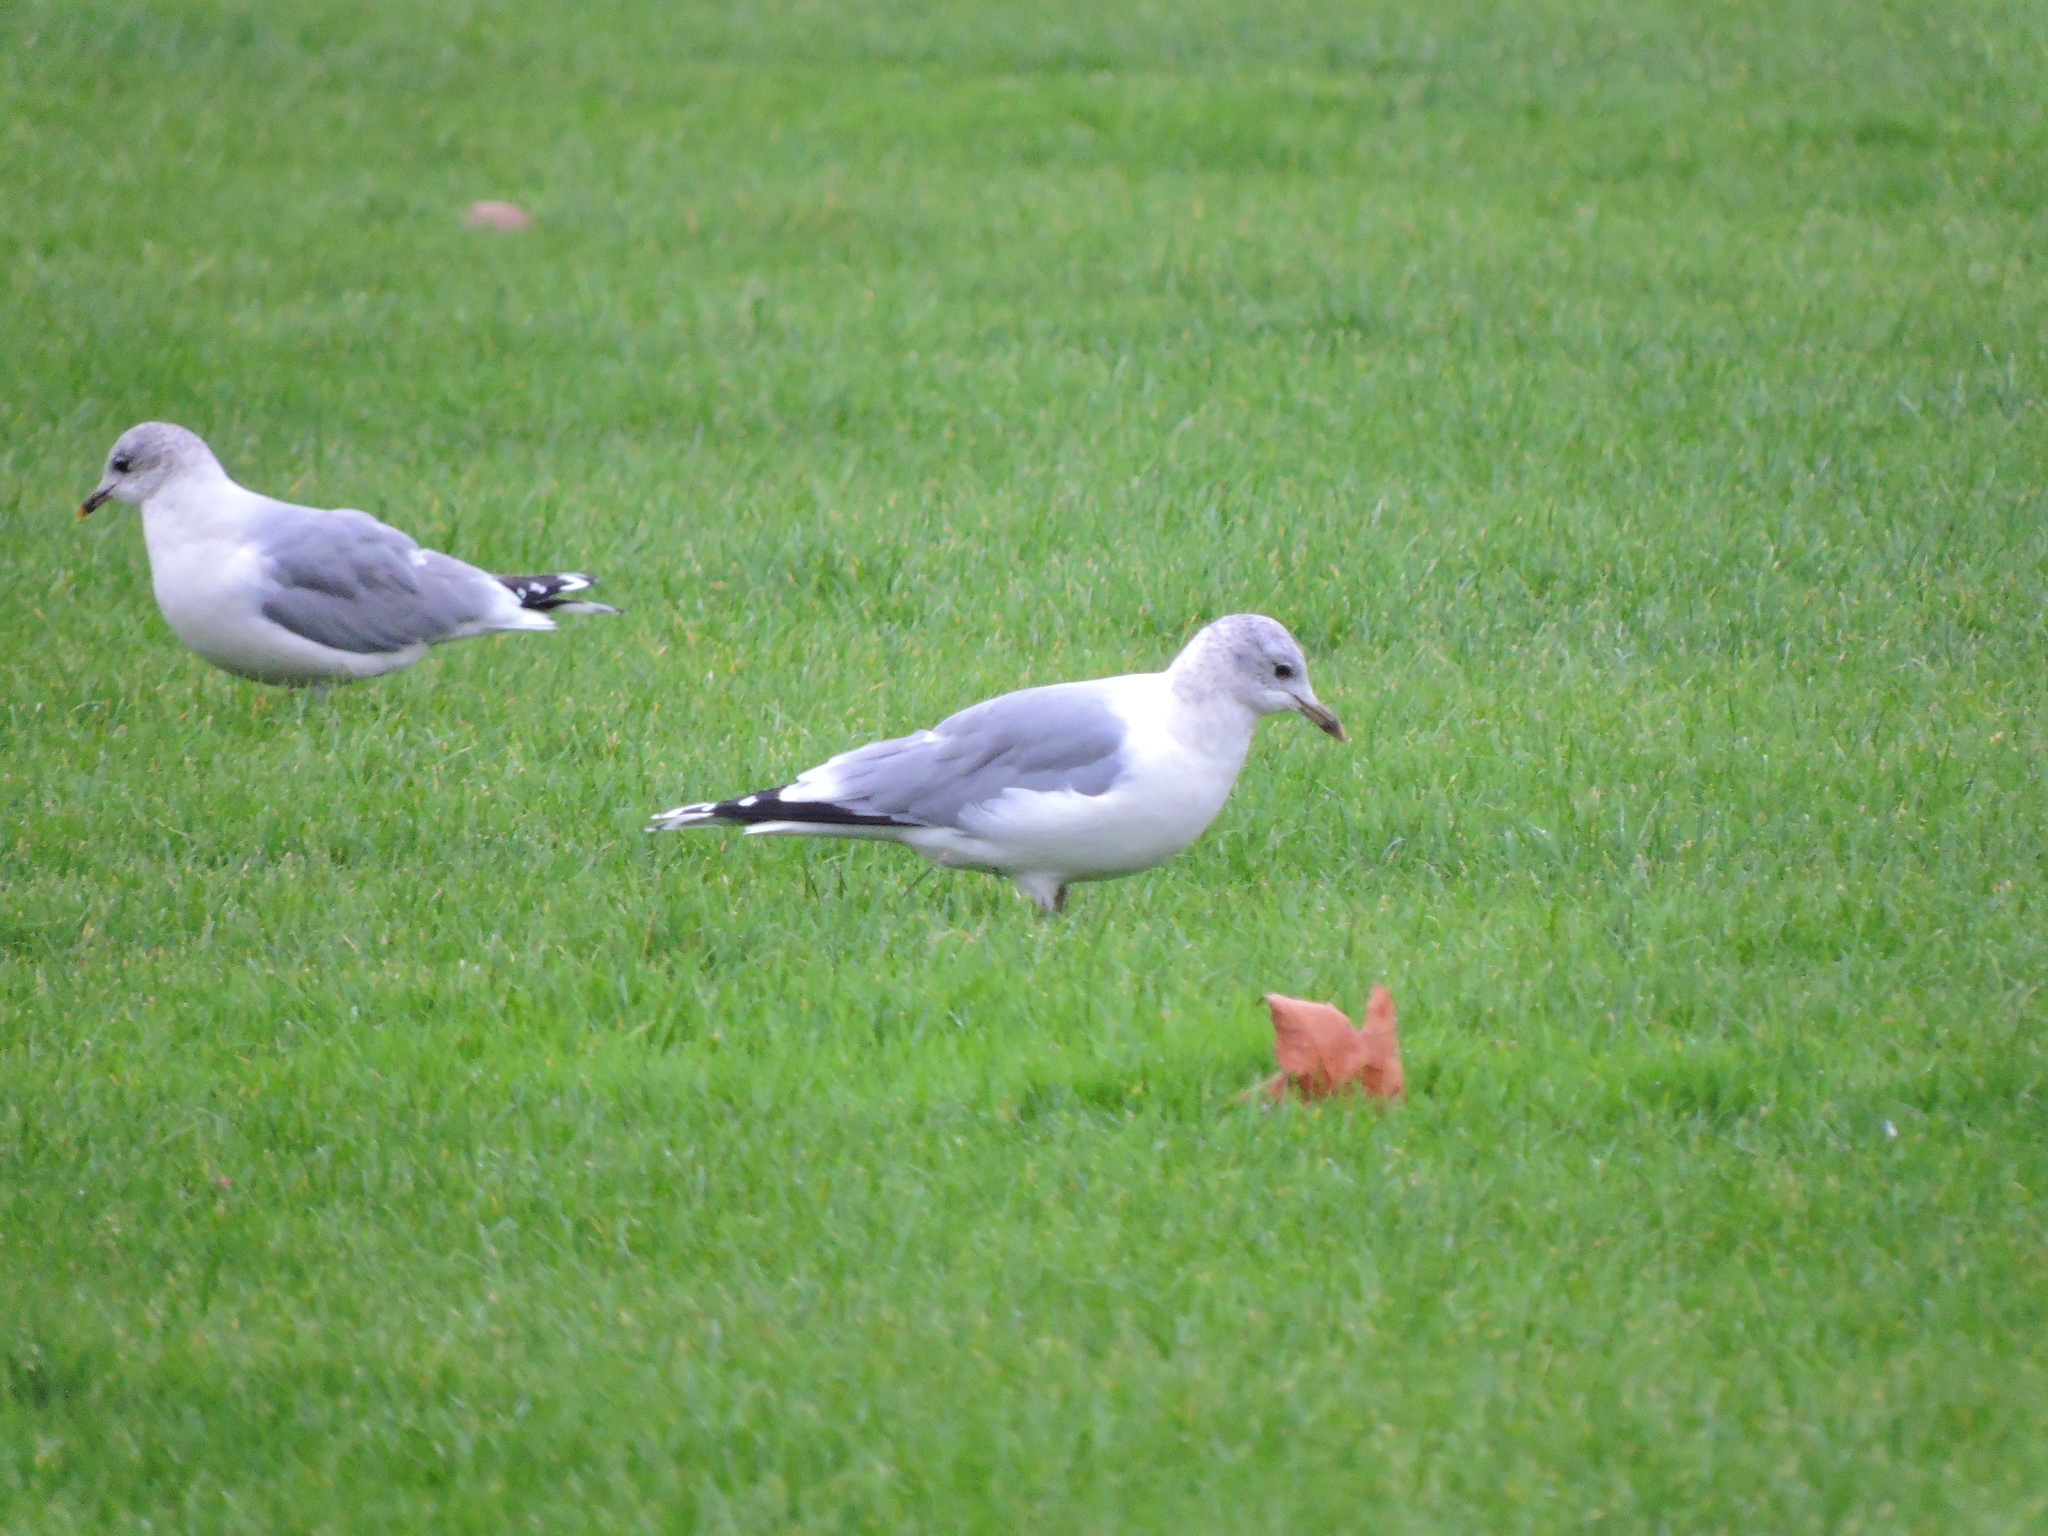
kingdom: Animalia
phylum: Chordata
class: Aves
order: Charadriiformes
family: Laridae
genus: Larus
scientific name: Larus canus
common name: Mew gull
